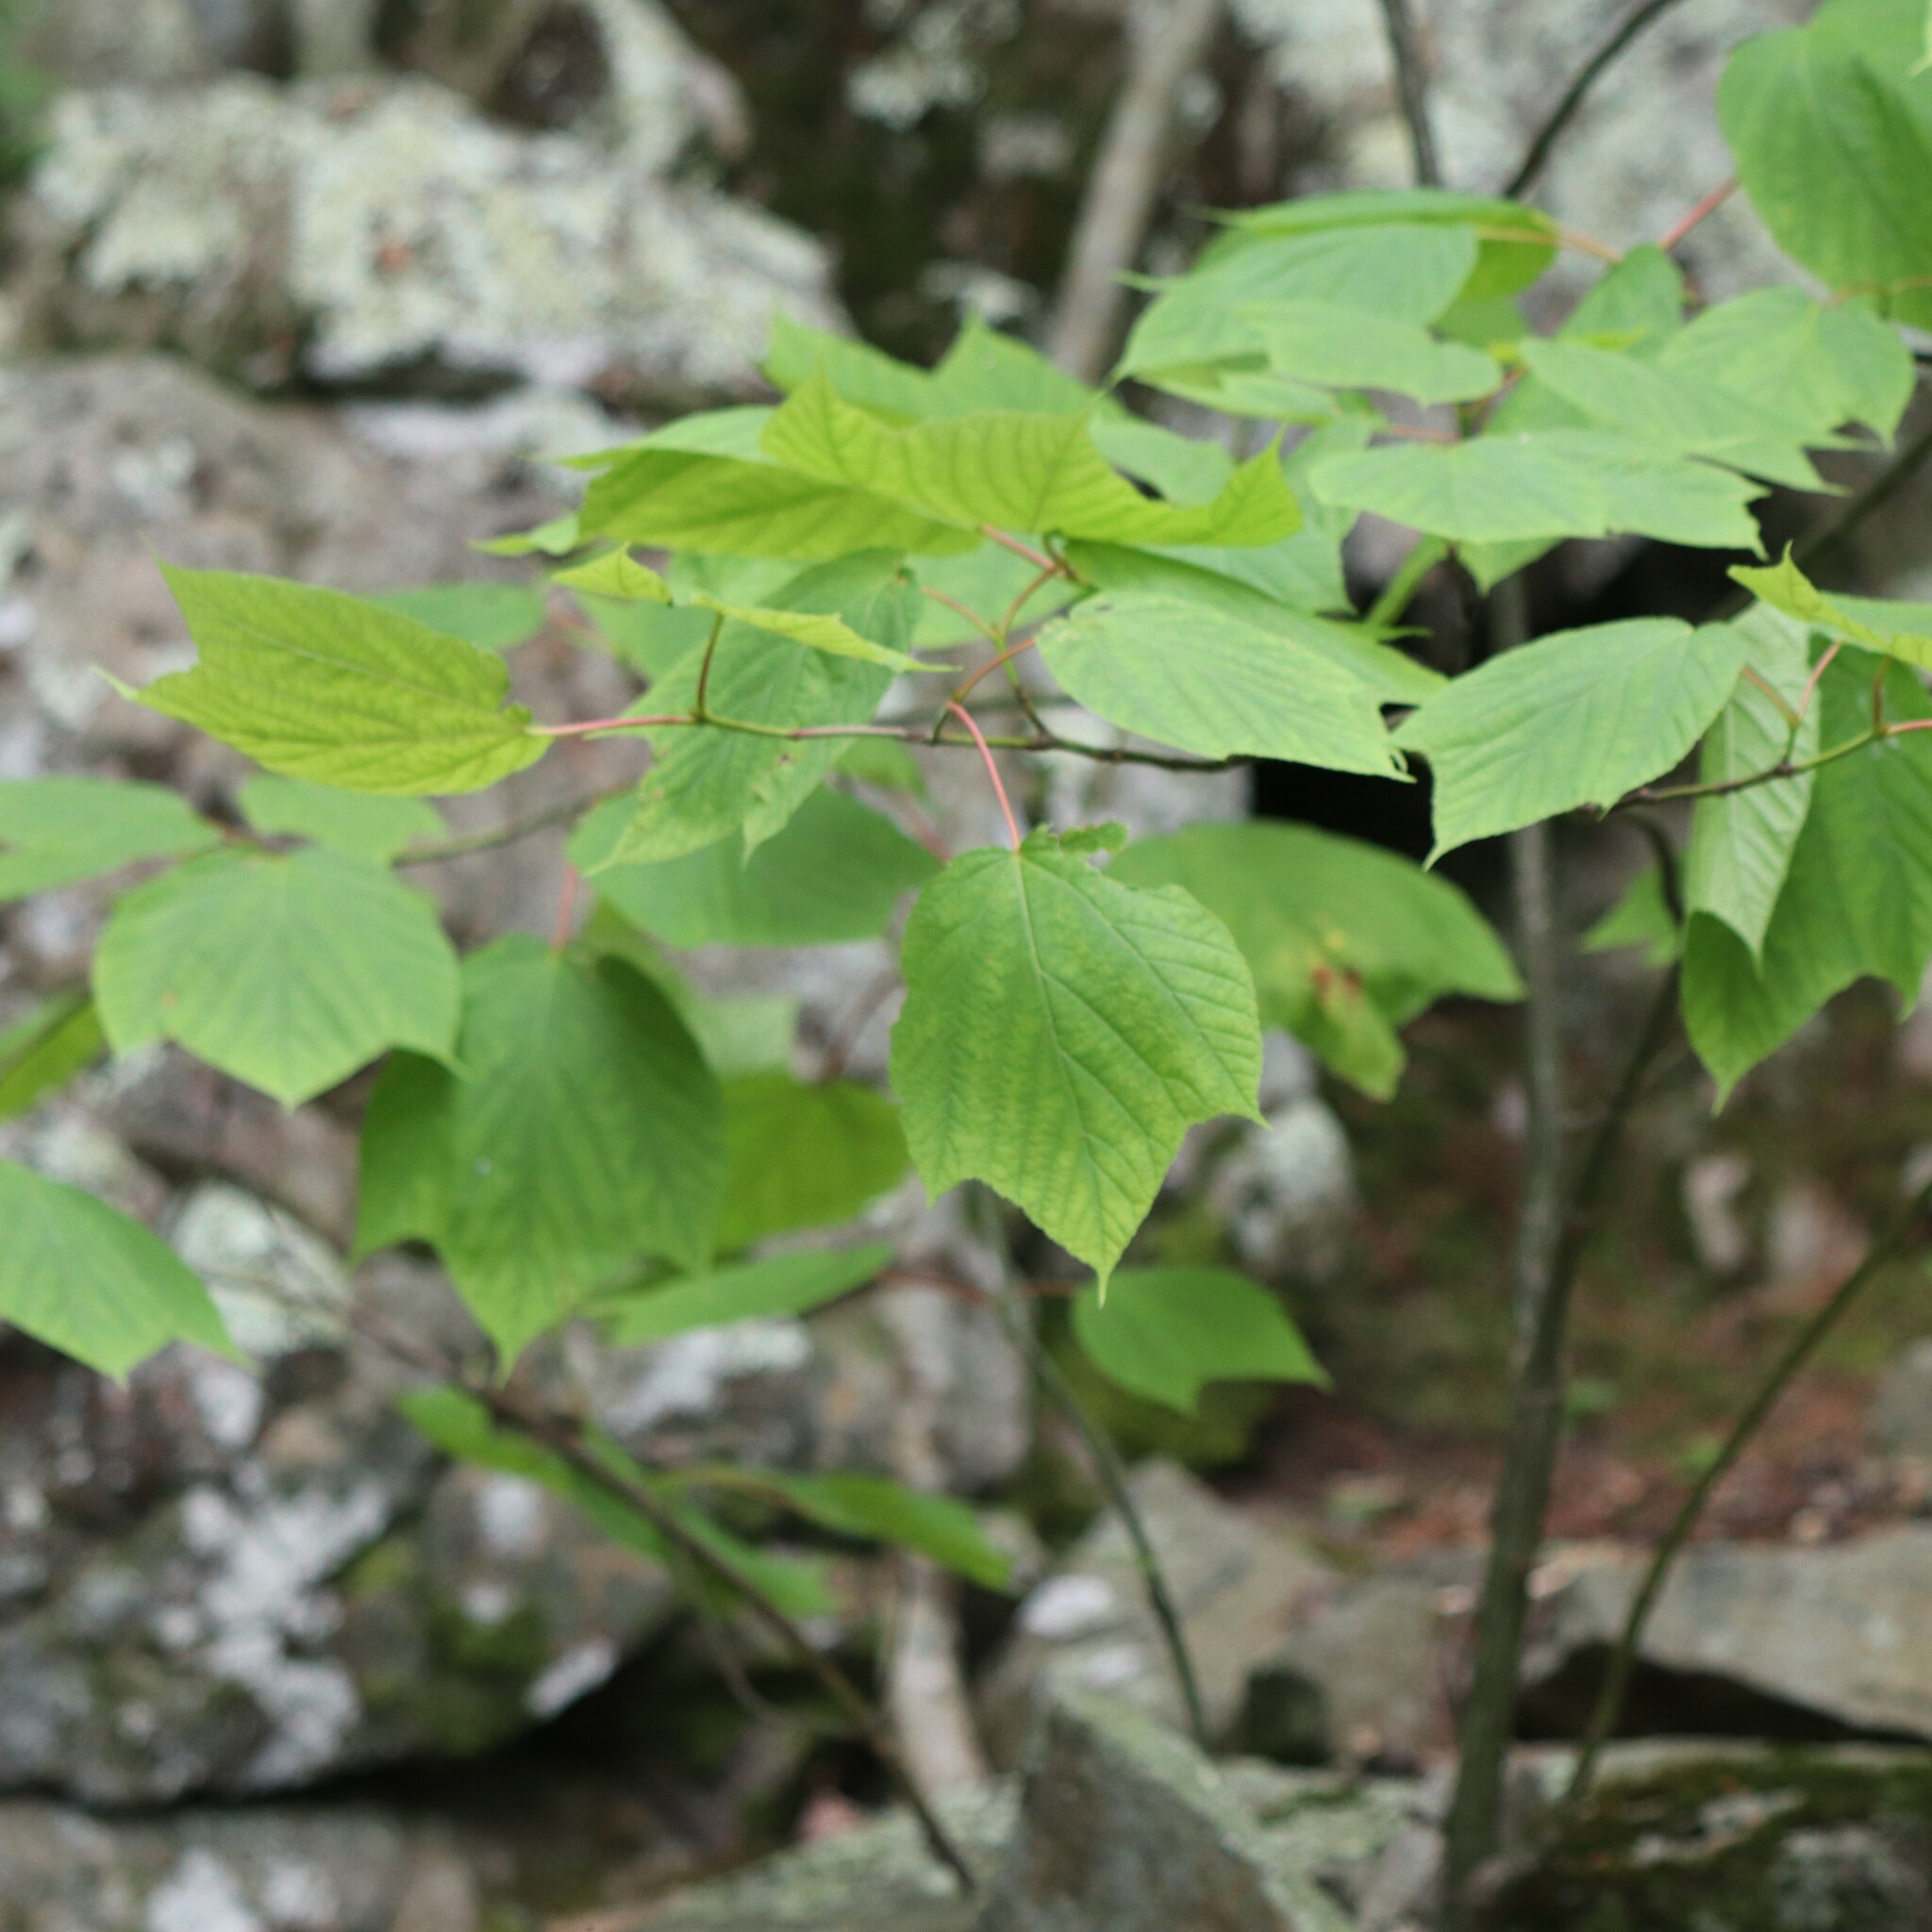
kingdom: Plantae
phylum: Tracheophyta
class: Magnoliopsida
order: Sapindales
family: Sapindaceae
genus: Acer
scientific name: Acer pensylvanicum
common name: Moosewood
